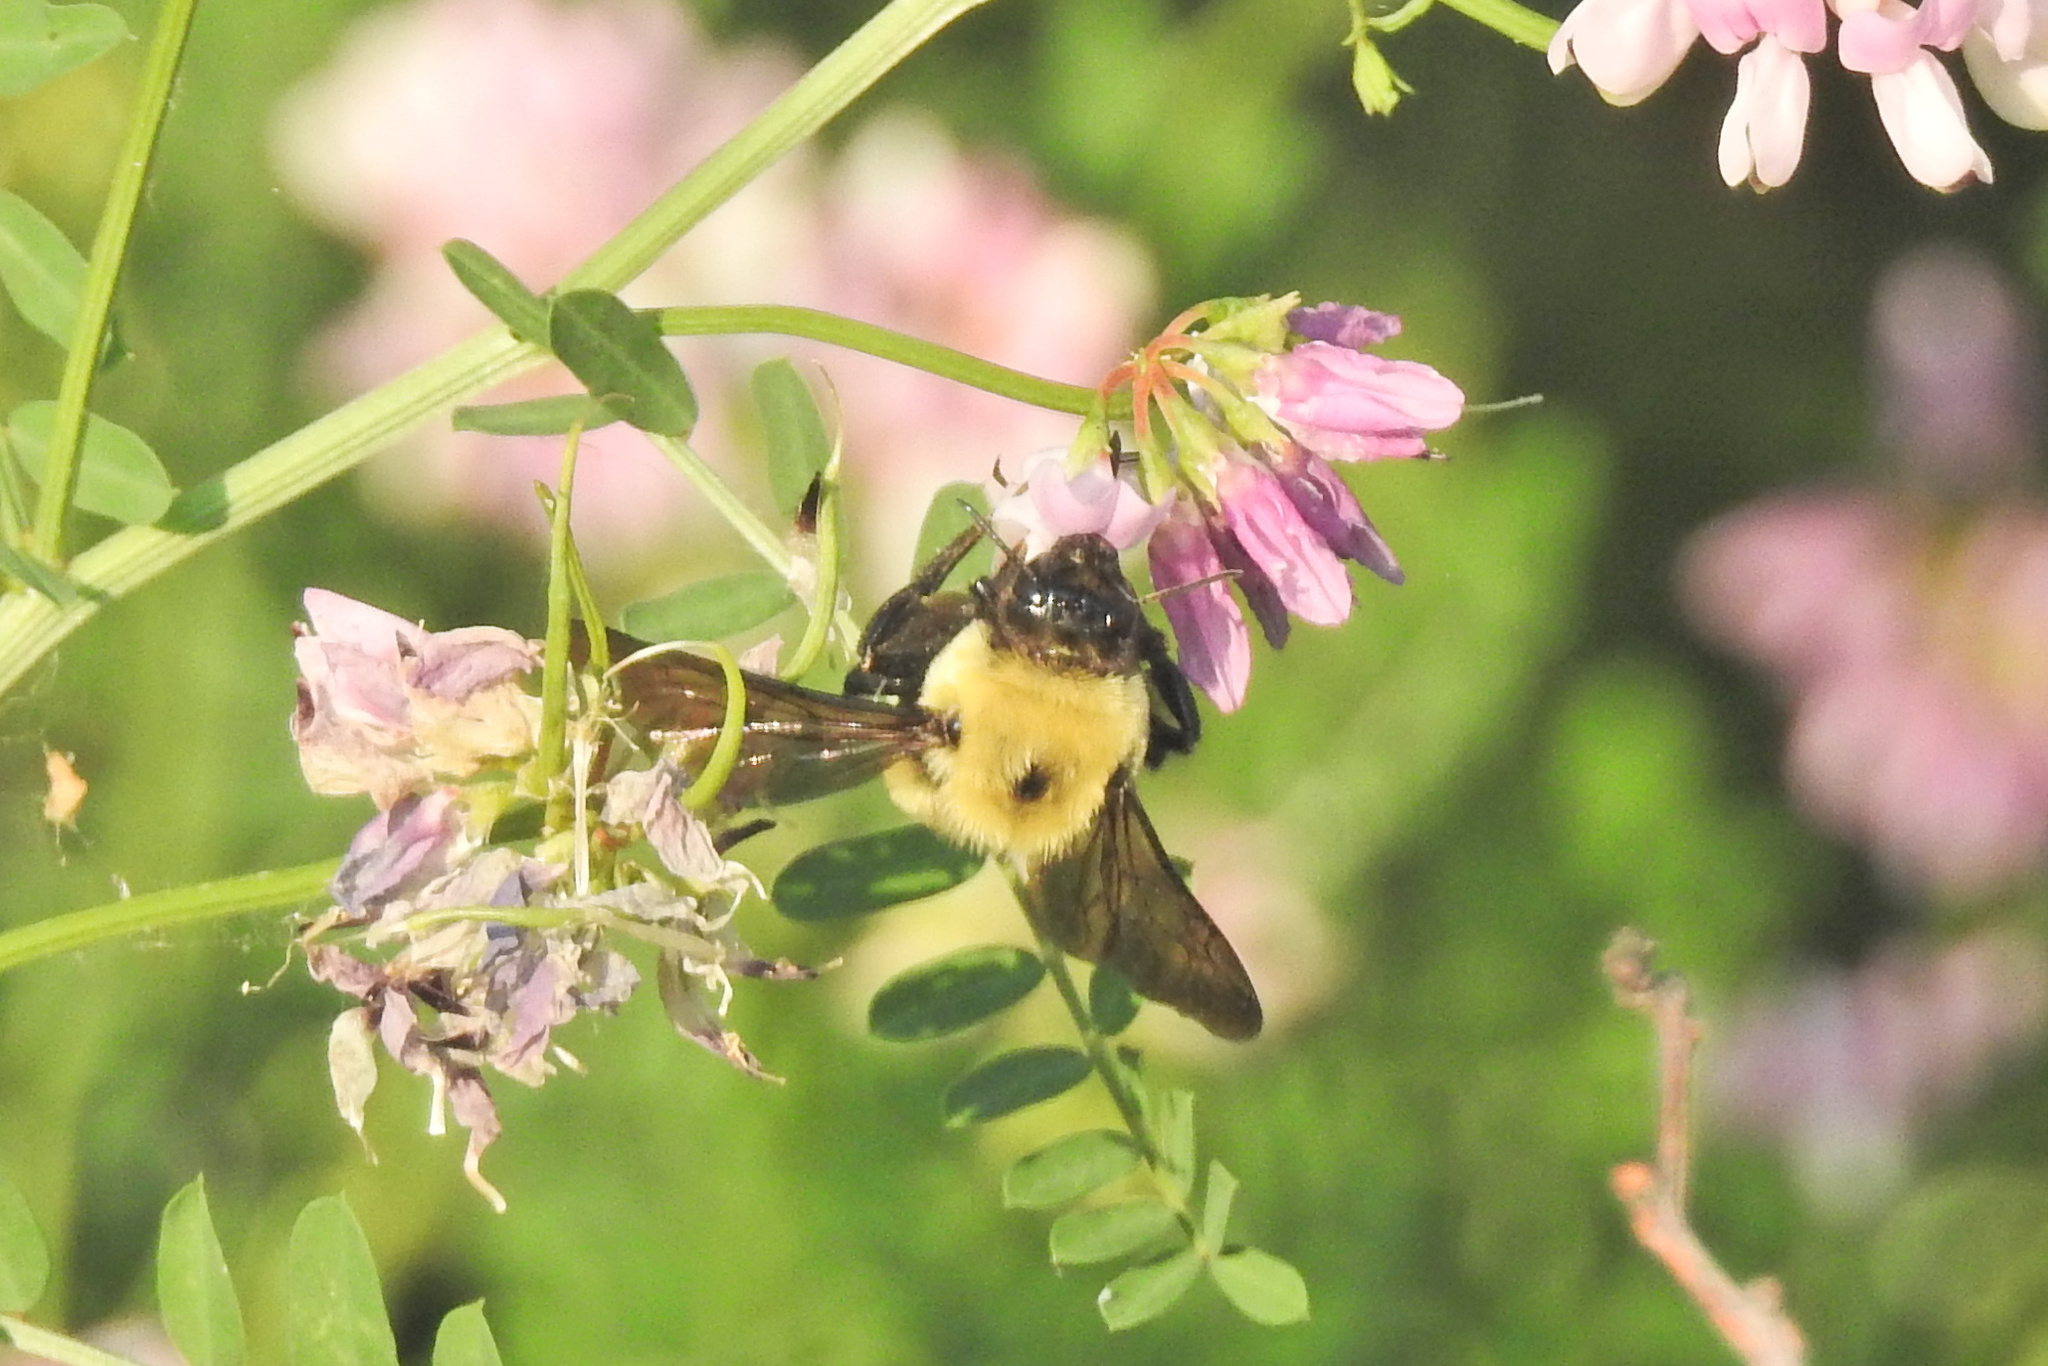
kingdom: Animalia
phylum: Arthropoda
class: Insecta
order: Hymenoptera
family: Apidae
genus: Bombus
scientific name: Bombus griseocollis
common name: Brown-belted bumble bee
